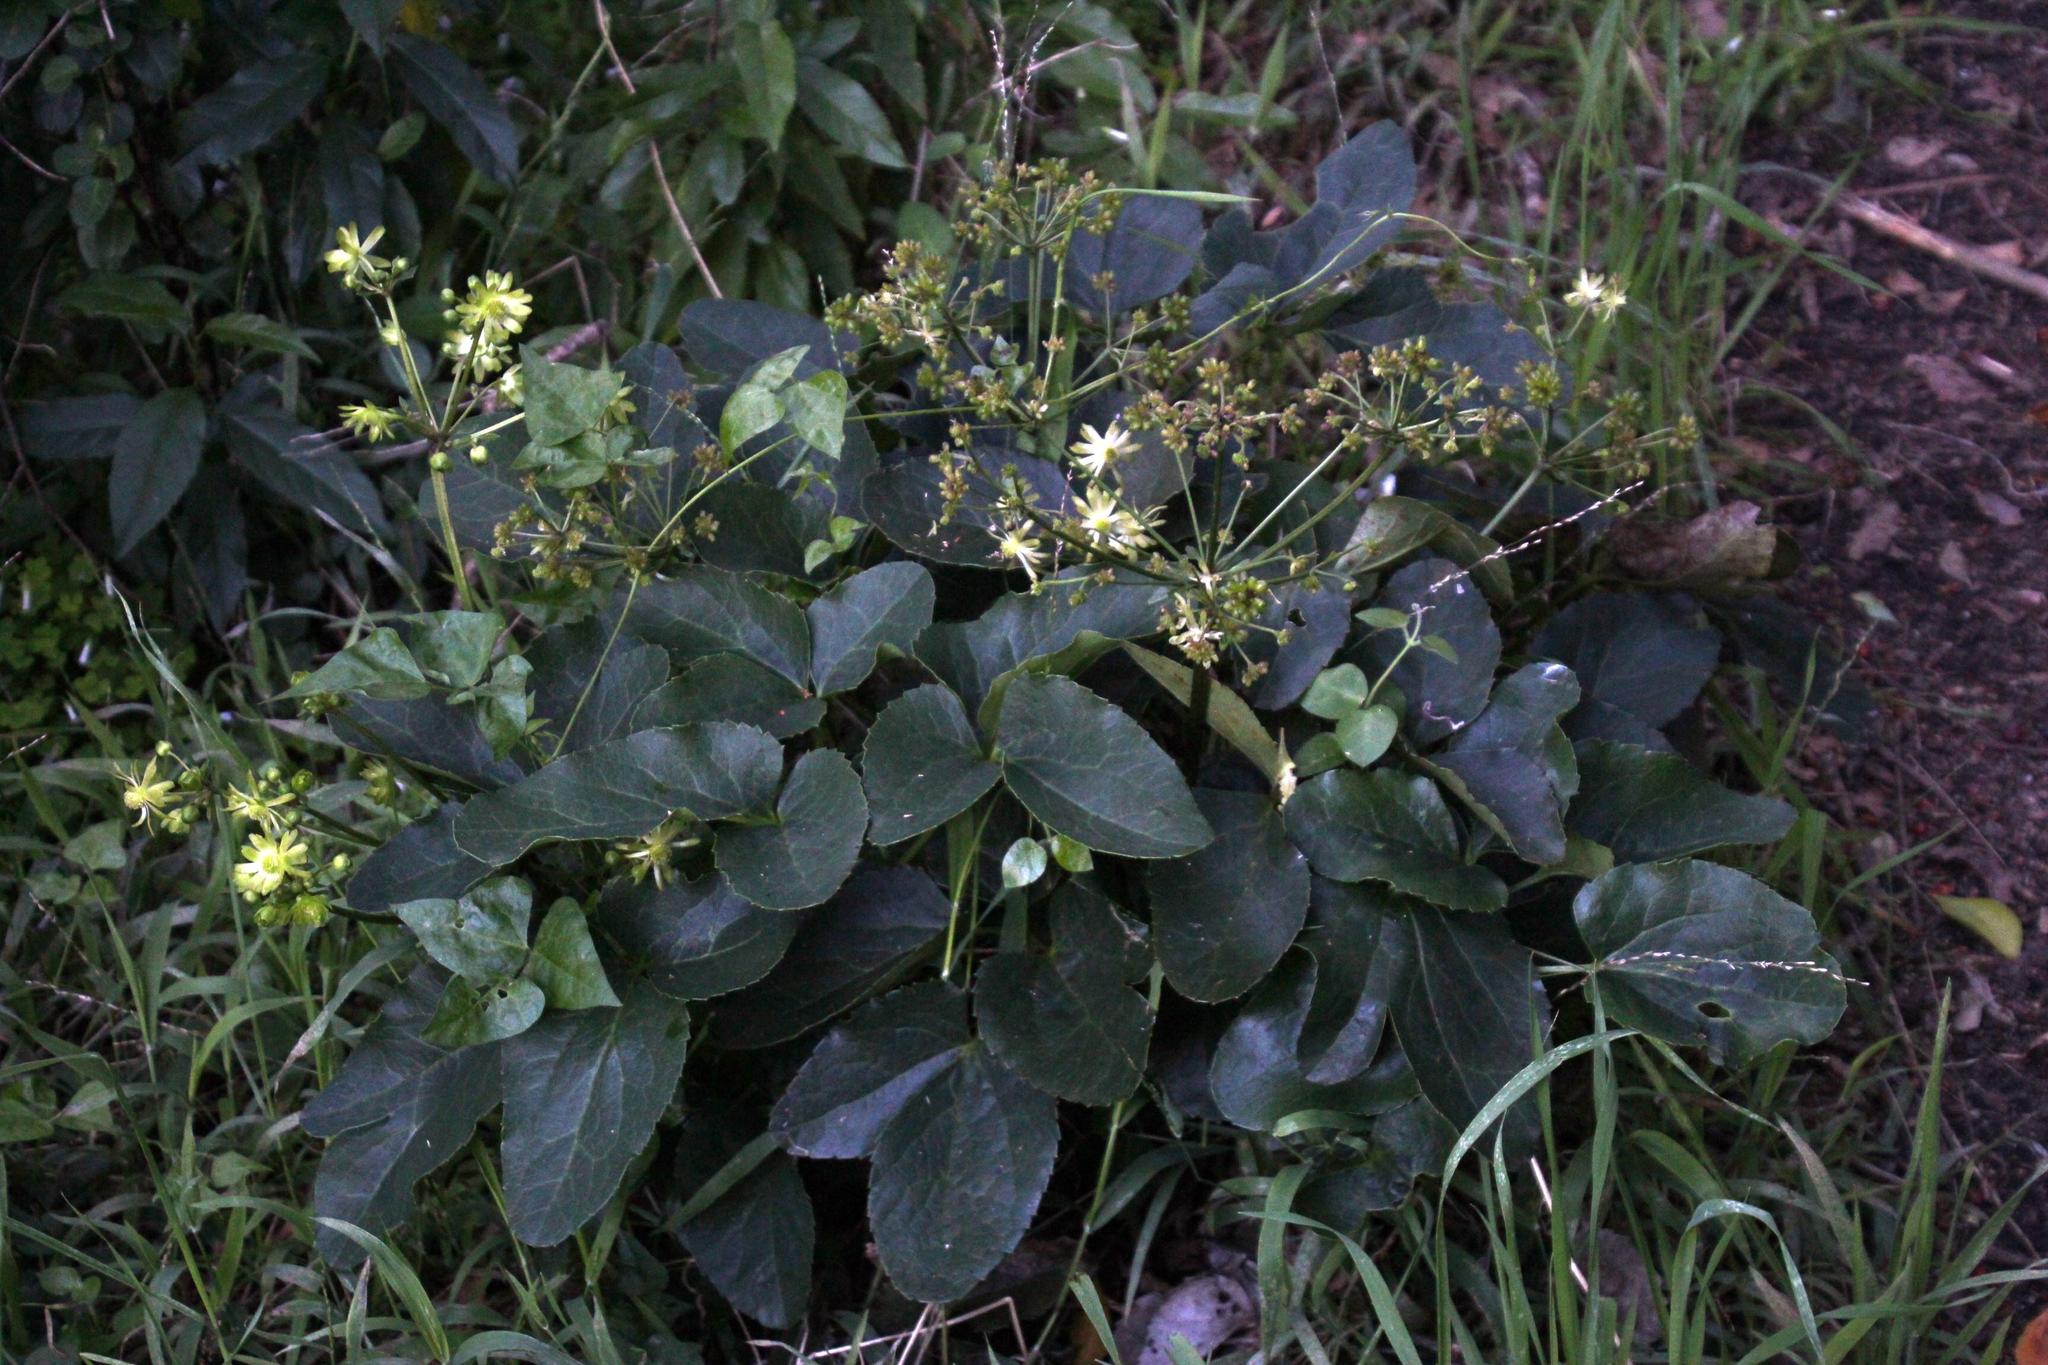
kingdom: Plantae
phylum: Tracheophyta
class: Magnoliopsida
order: Ranunculales
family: Ranunculaceae
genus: Knowltonia
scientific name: Knowltonia vesicatoria
